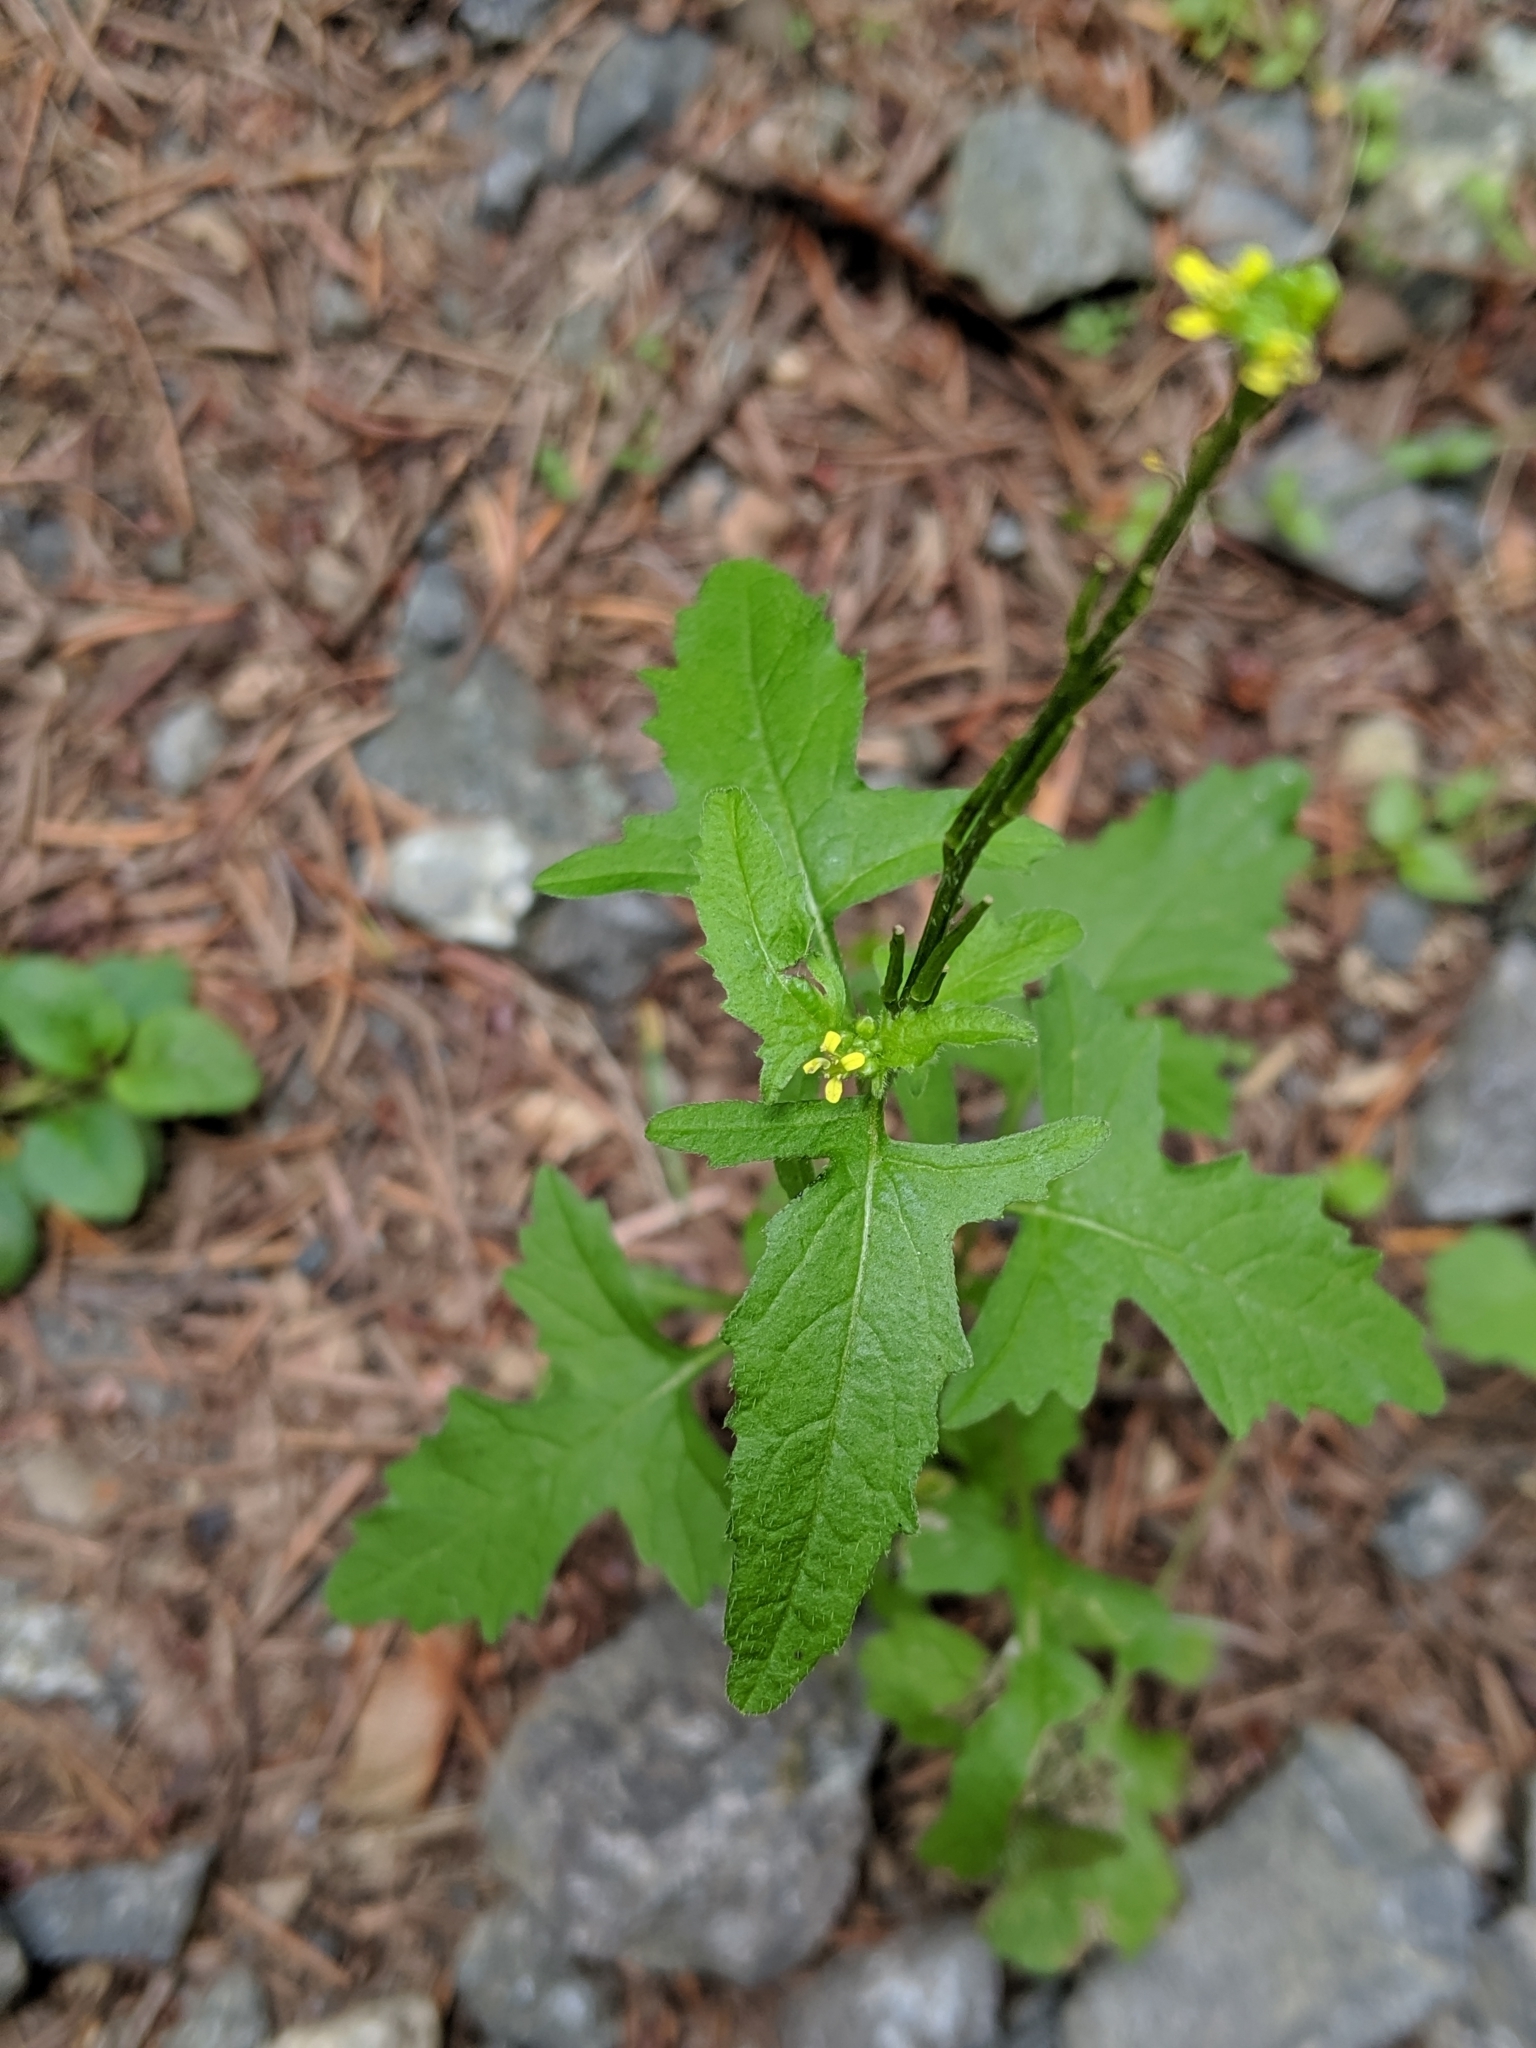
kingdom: Plantae
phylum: Tracheophyta
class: Magnoliopsida
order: Brassicales
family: Brassicaceae
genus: Sisymbrium
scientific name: Sisymbrium officinale
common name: Hedge mustard
